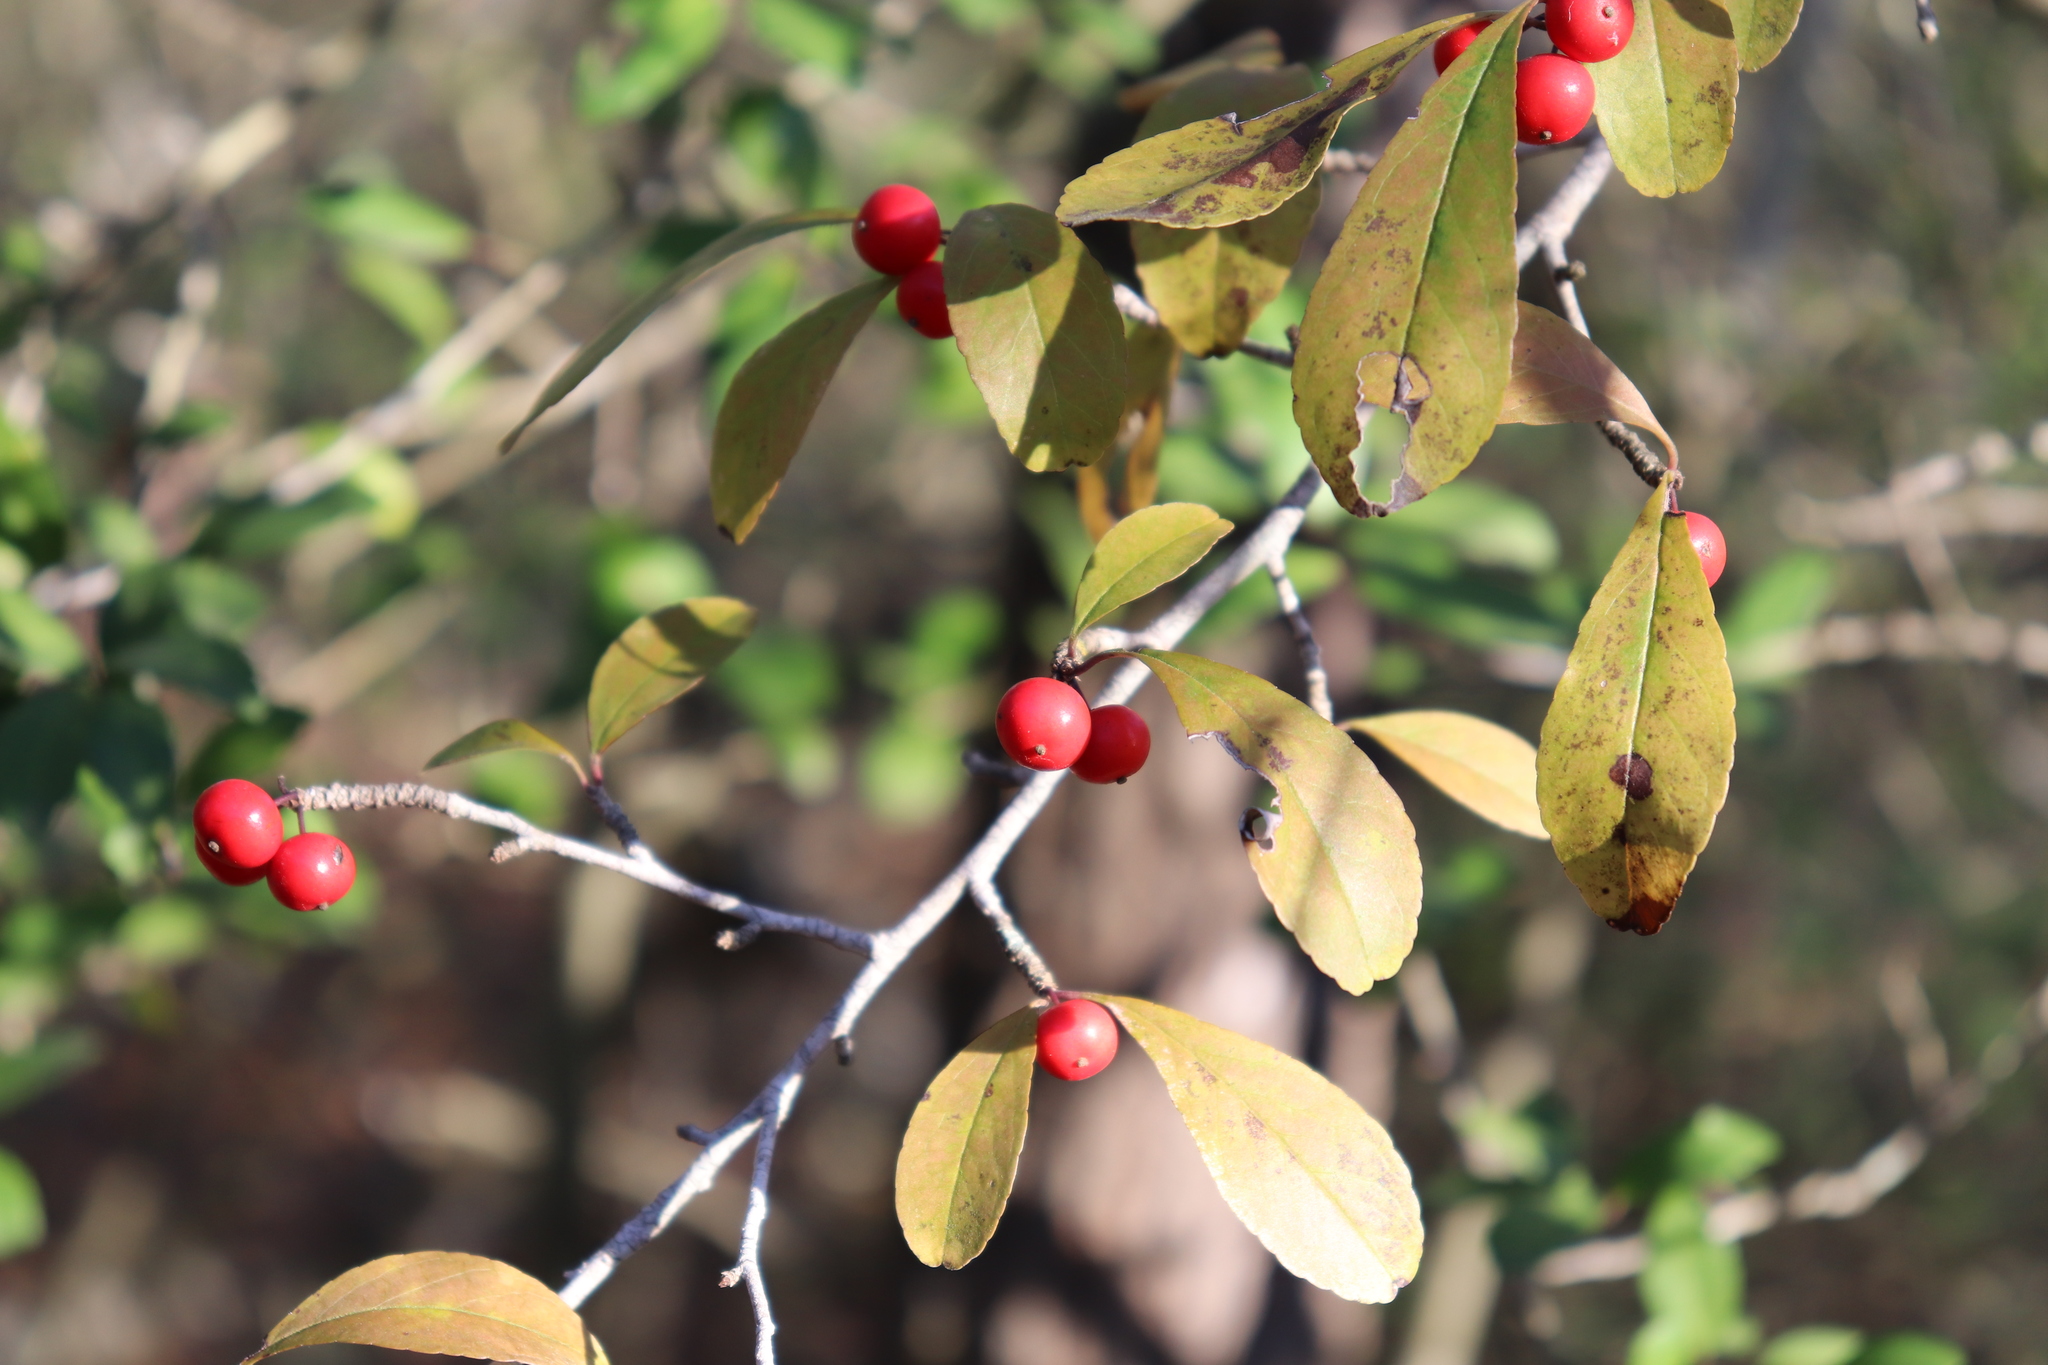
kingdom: Plantae
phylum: Tracheophyta
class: Magnoliopsida
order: Aquifoliales
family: Aquifoliaceae
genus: Ilex
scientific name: Ilex decidua
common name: Possum-haw
